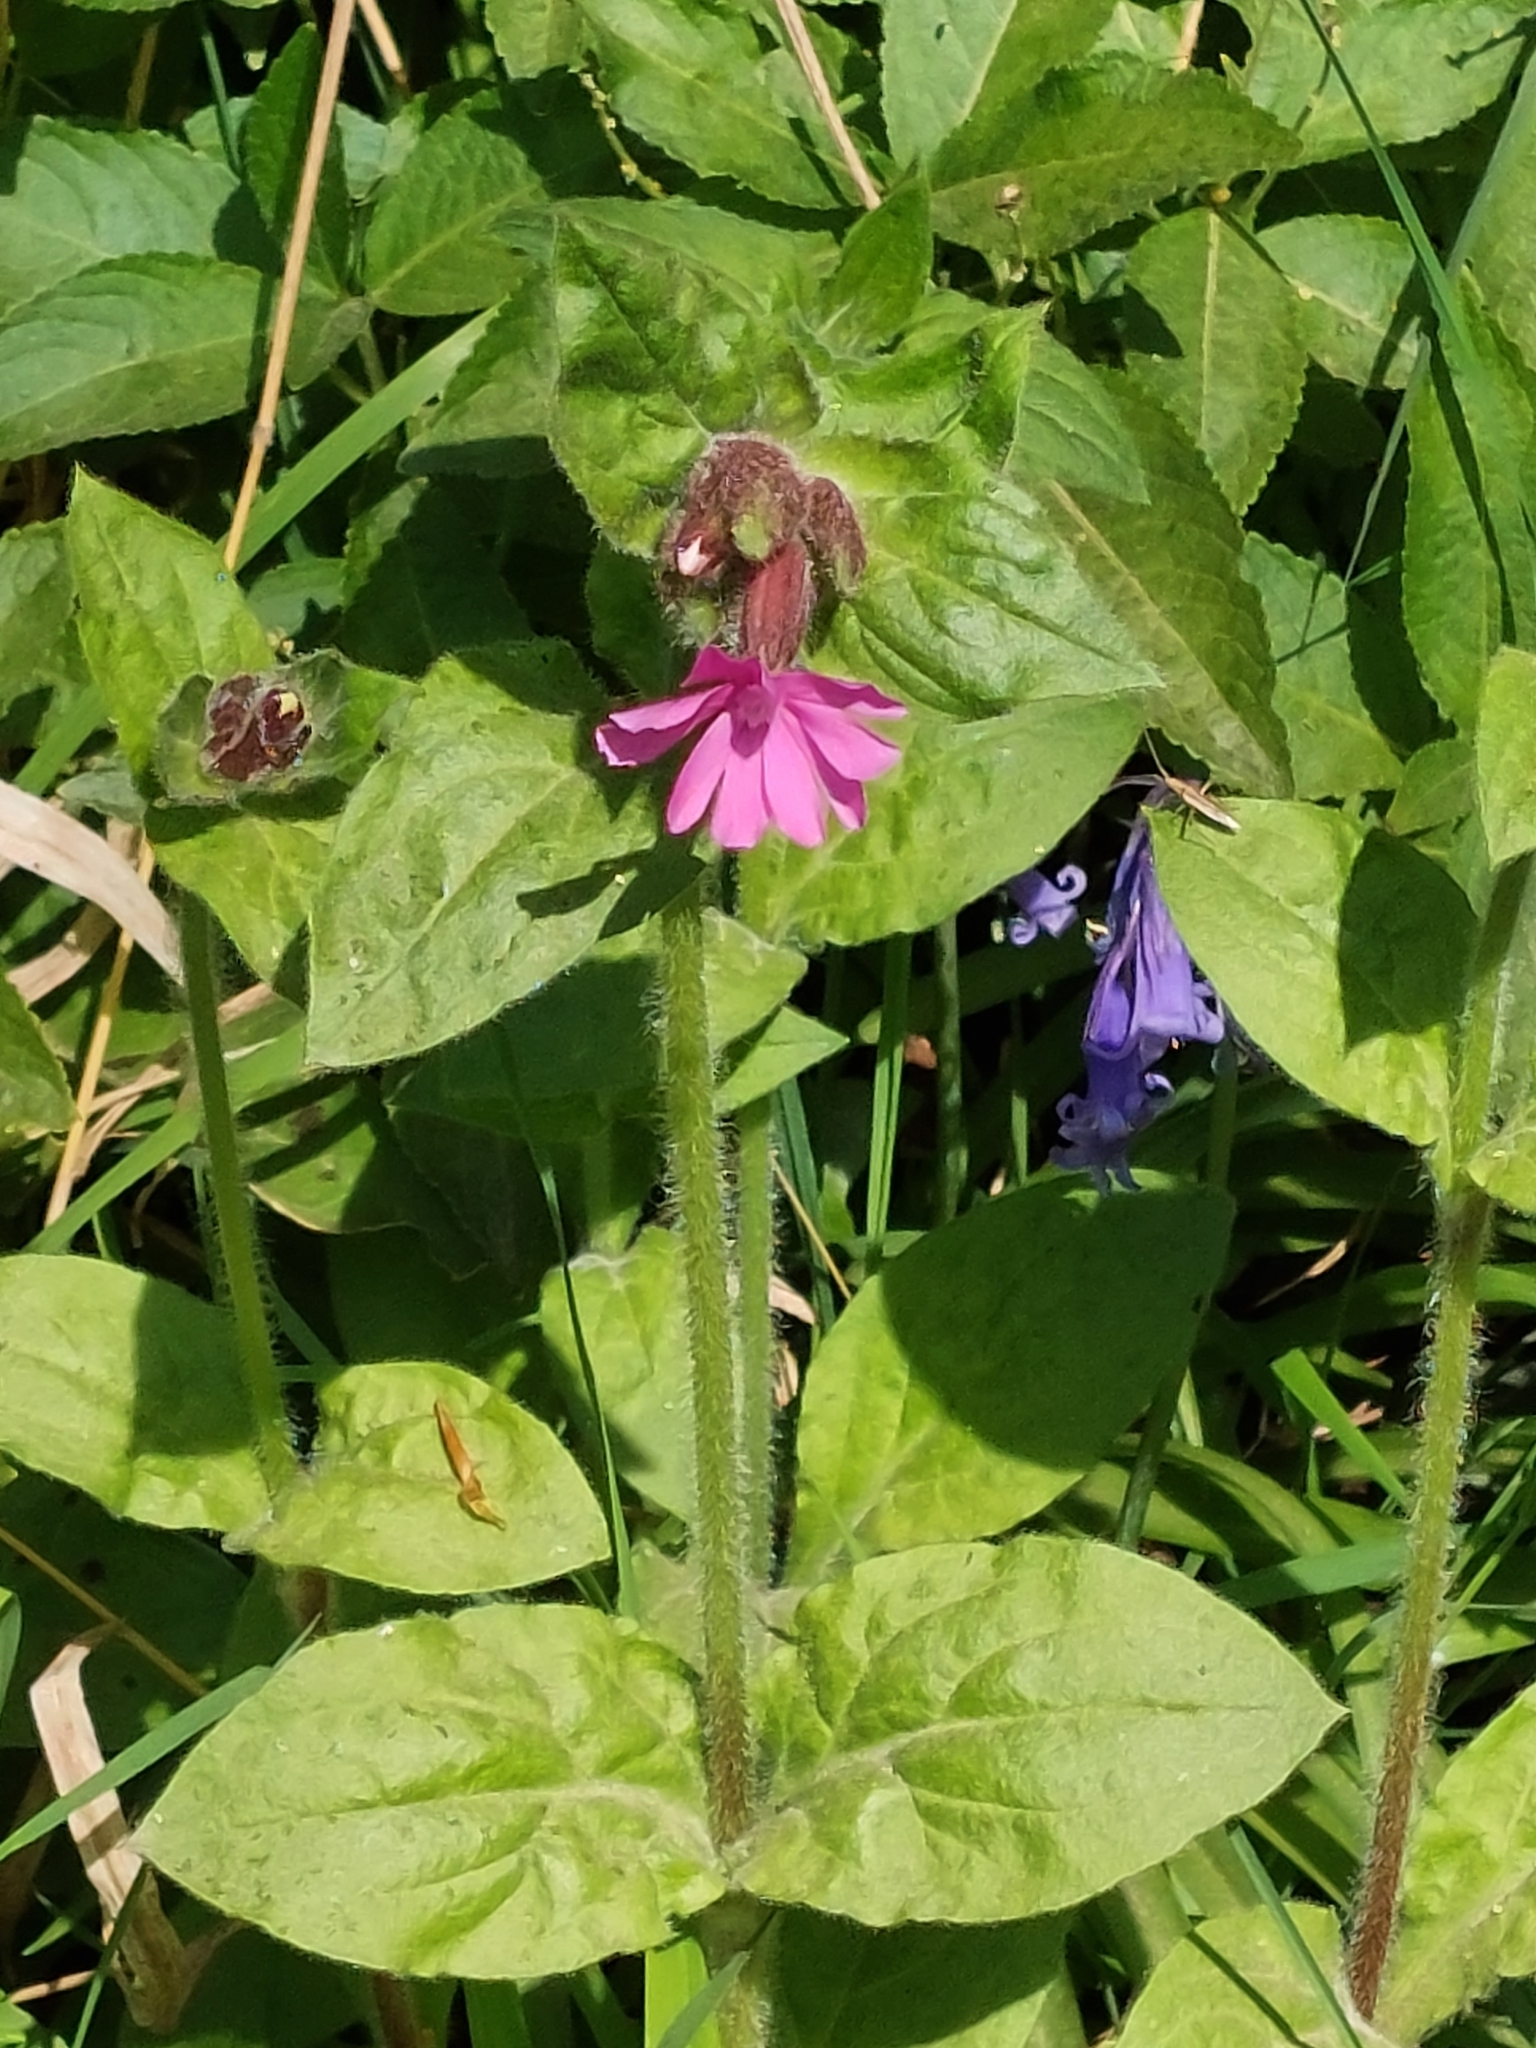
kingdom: Plantae
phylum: Tracheophyta
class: Magnoliopsida
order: Caryophyllales
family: Caryophyllaceae
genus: Silene
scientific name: Silene dioica
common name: Red campion
